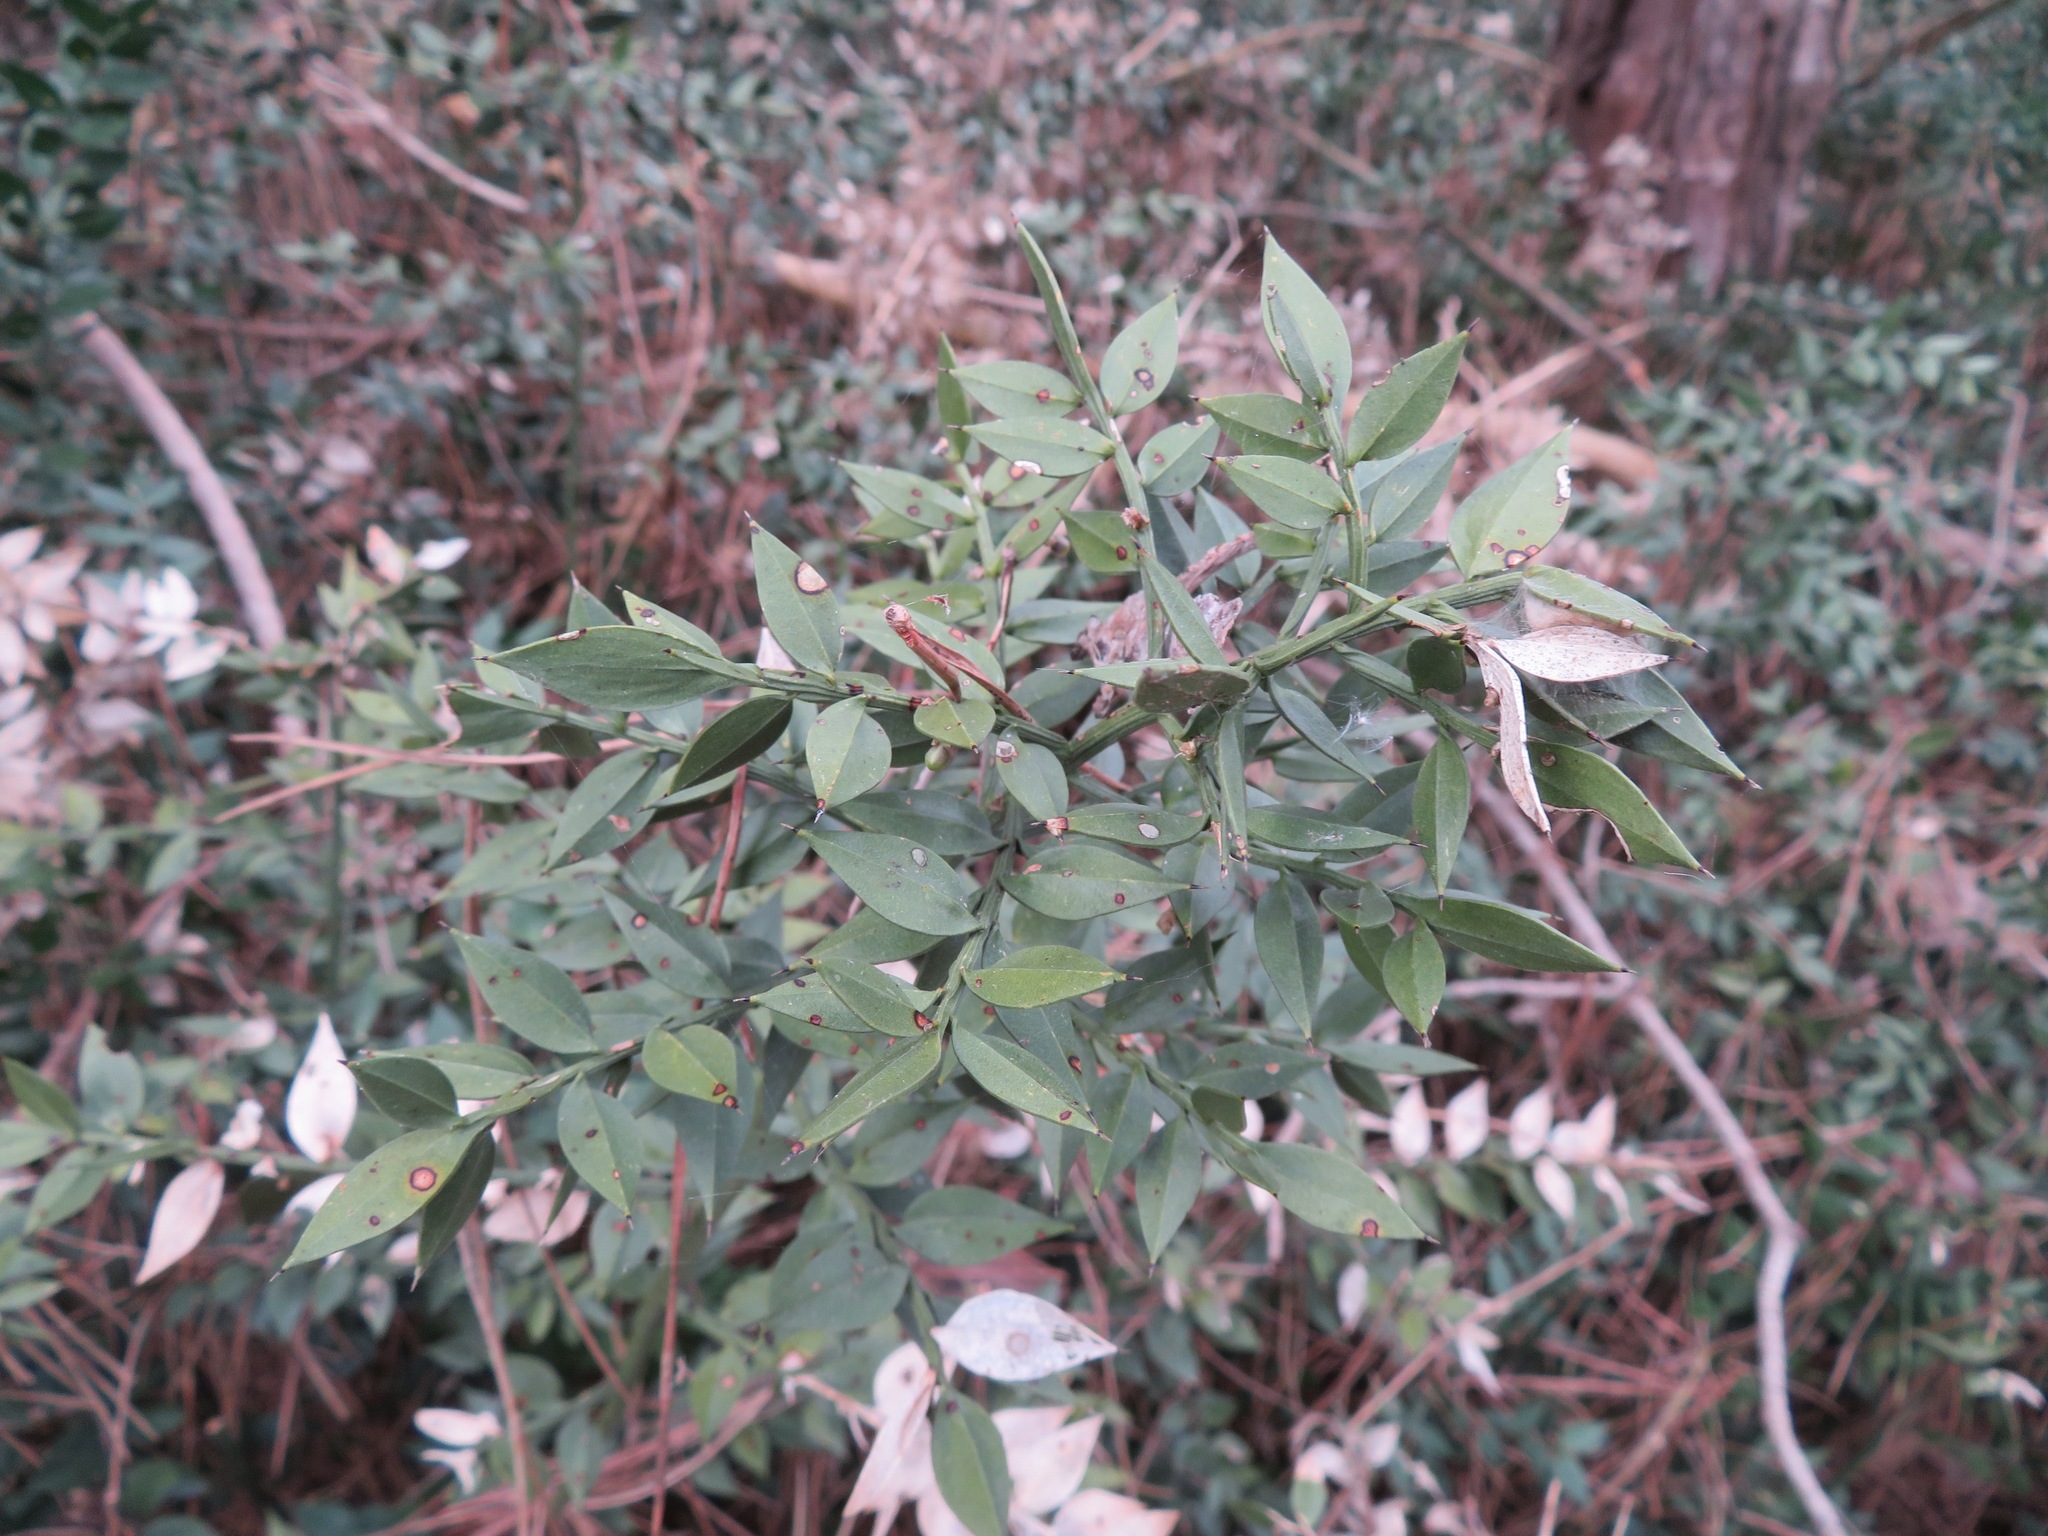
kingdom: Plantae
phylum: Tracheophyta
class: Liliopsida
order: Asparagales
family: Asparagaceae
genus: Ruscus
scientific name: Ruscus aculeatus
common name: Butcher's-broom
